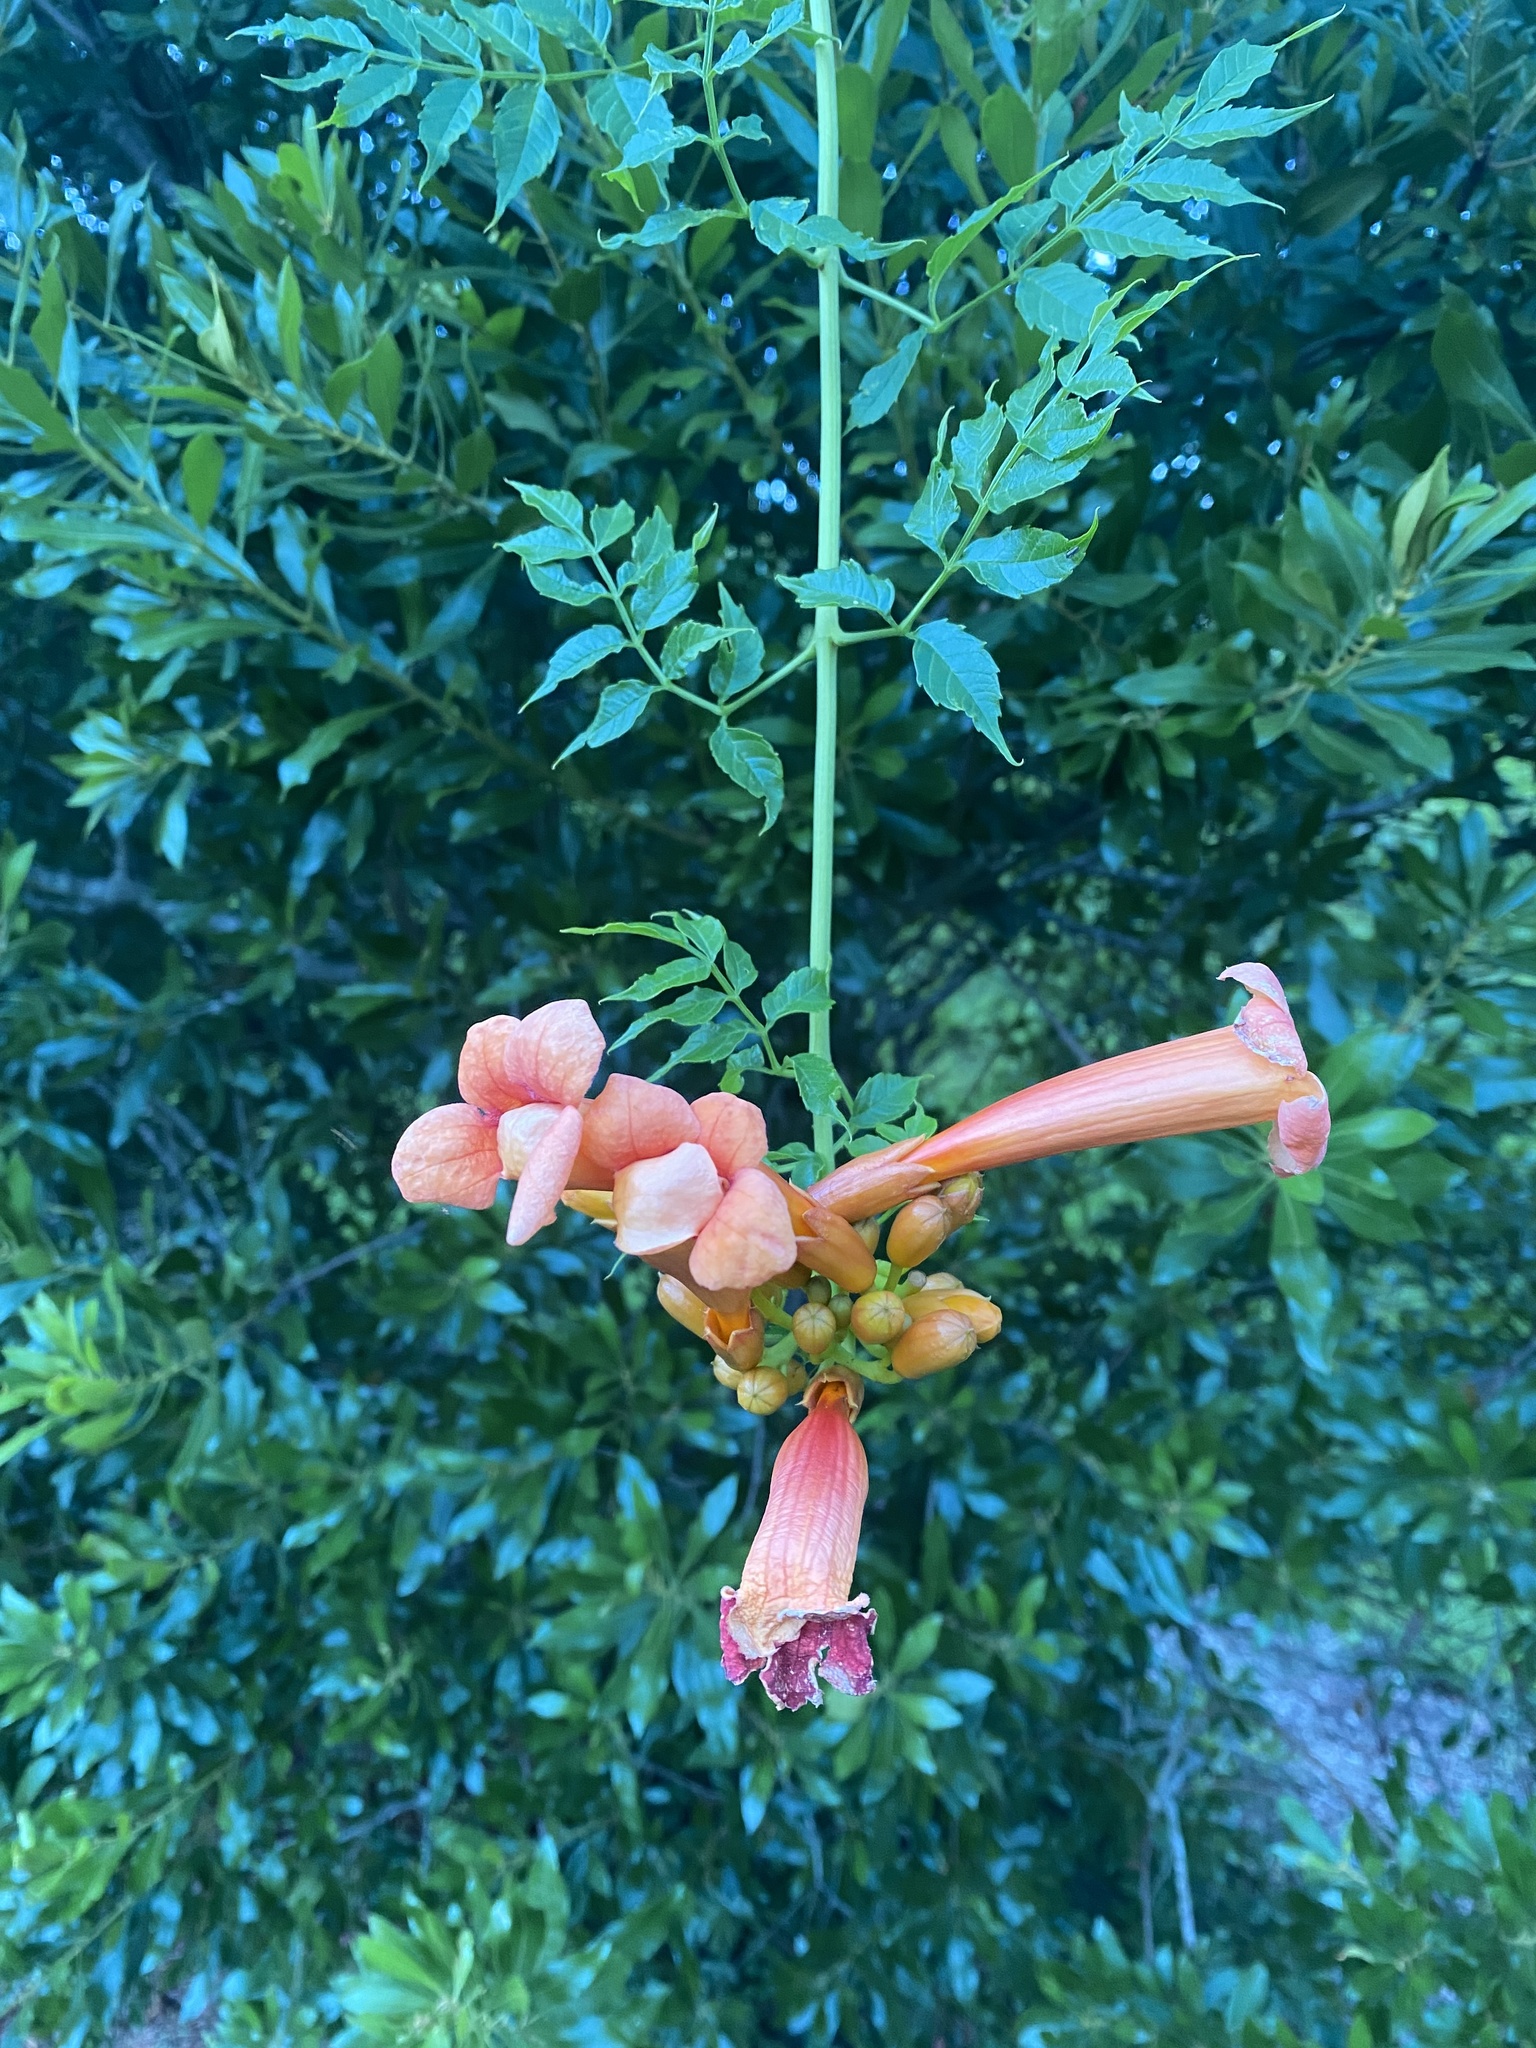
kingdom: Plantae
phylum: Tracheophyta
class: Magnoliopsida
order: Lamiales
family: Bignoniaceae
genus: Campsis
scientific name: Campsis radicans
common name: Trumpet-creeper
